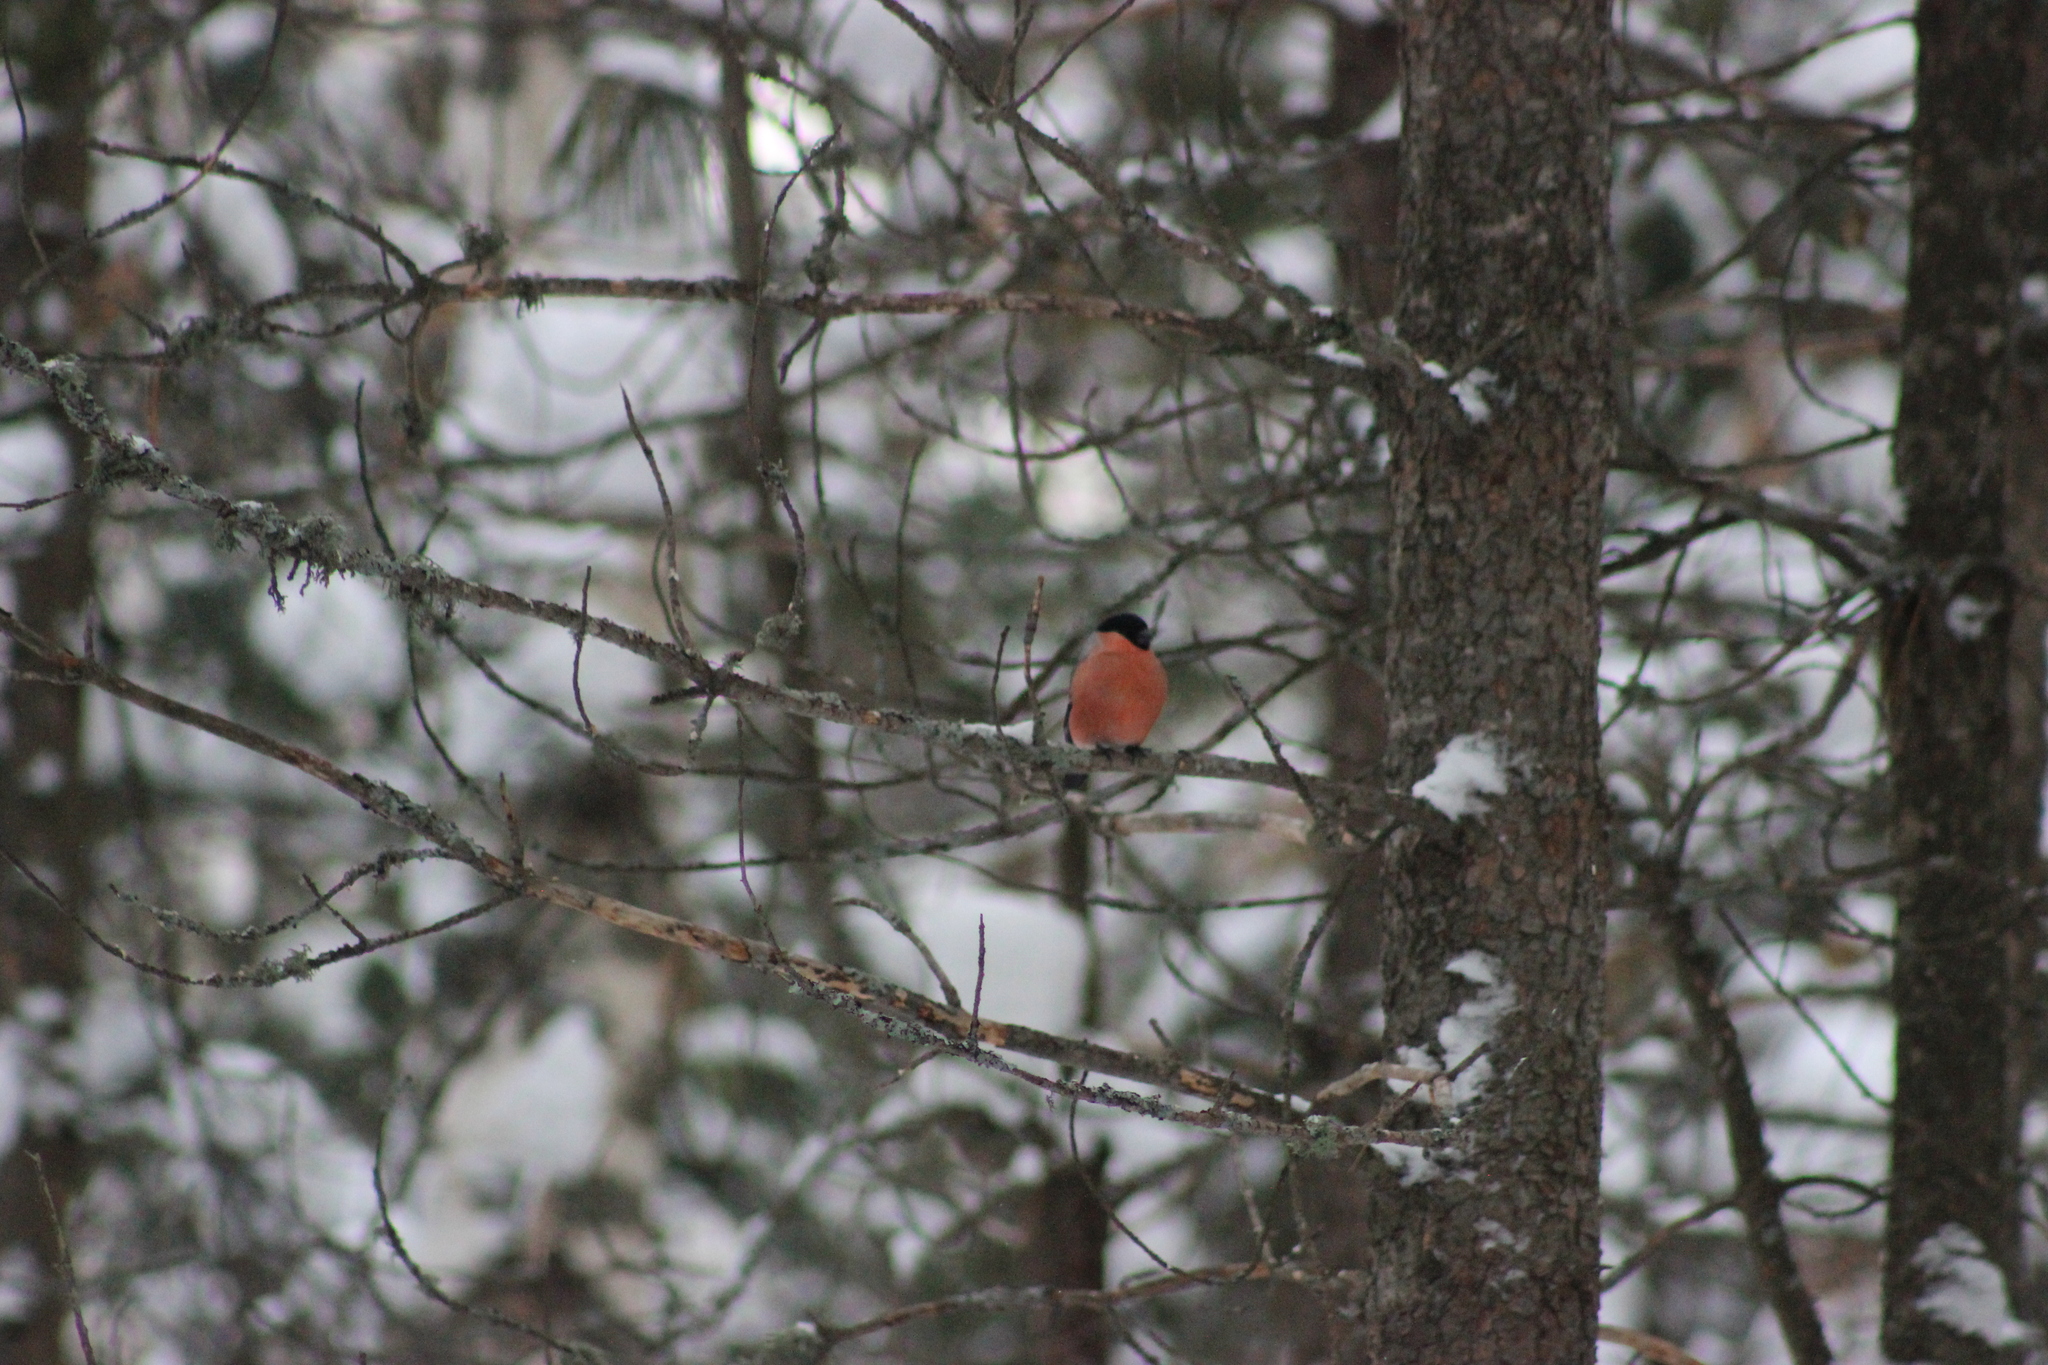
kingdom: Animalia
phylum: Chordata
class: Aves
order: Passeriformes
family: Fringillidae
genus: Pyrrhula
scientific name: Pyrrhula pyrrhula
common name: Eurasian bullfinch
